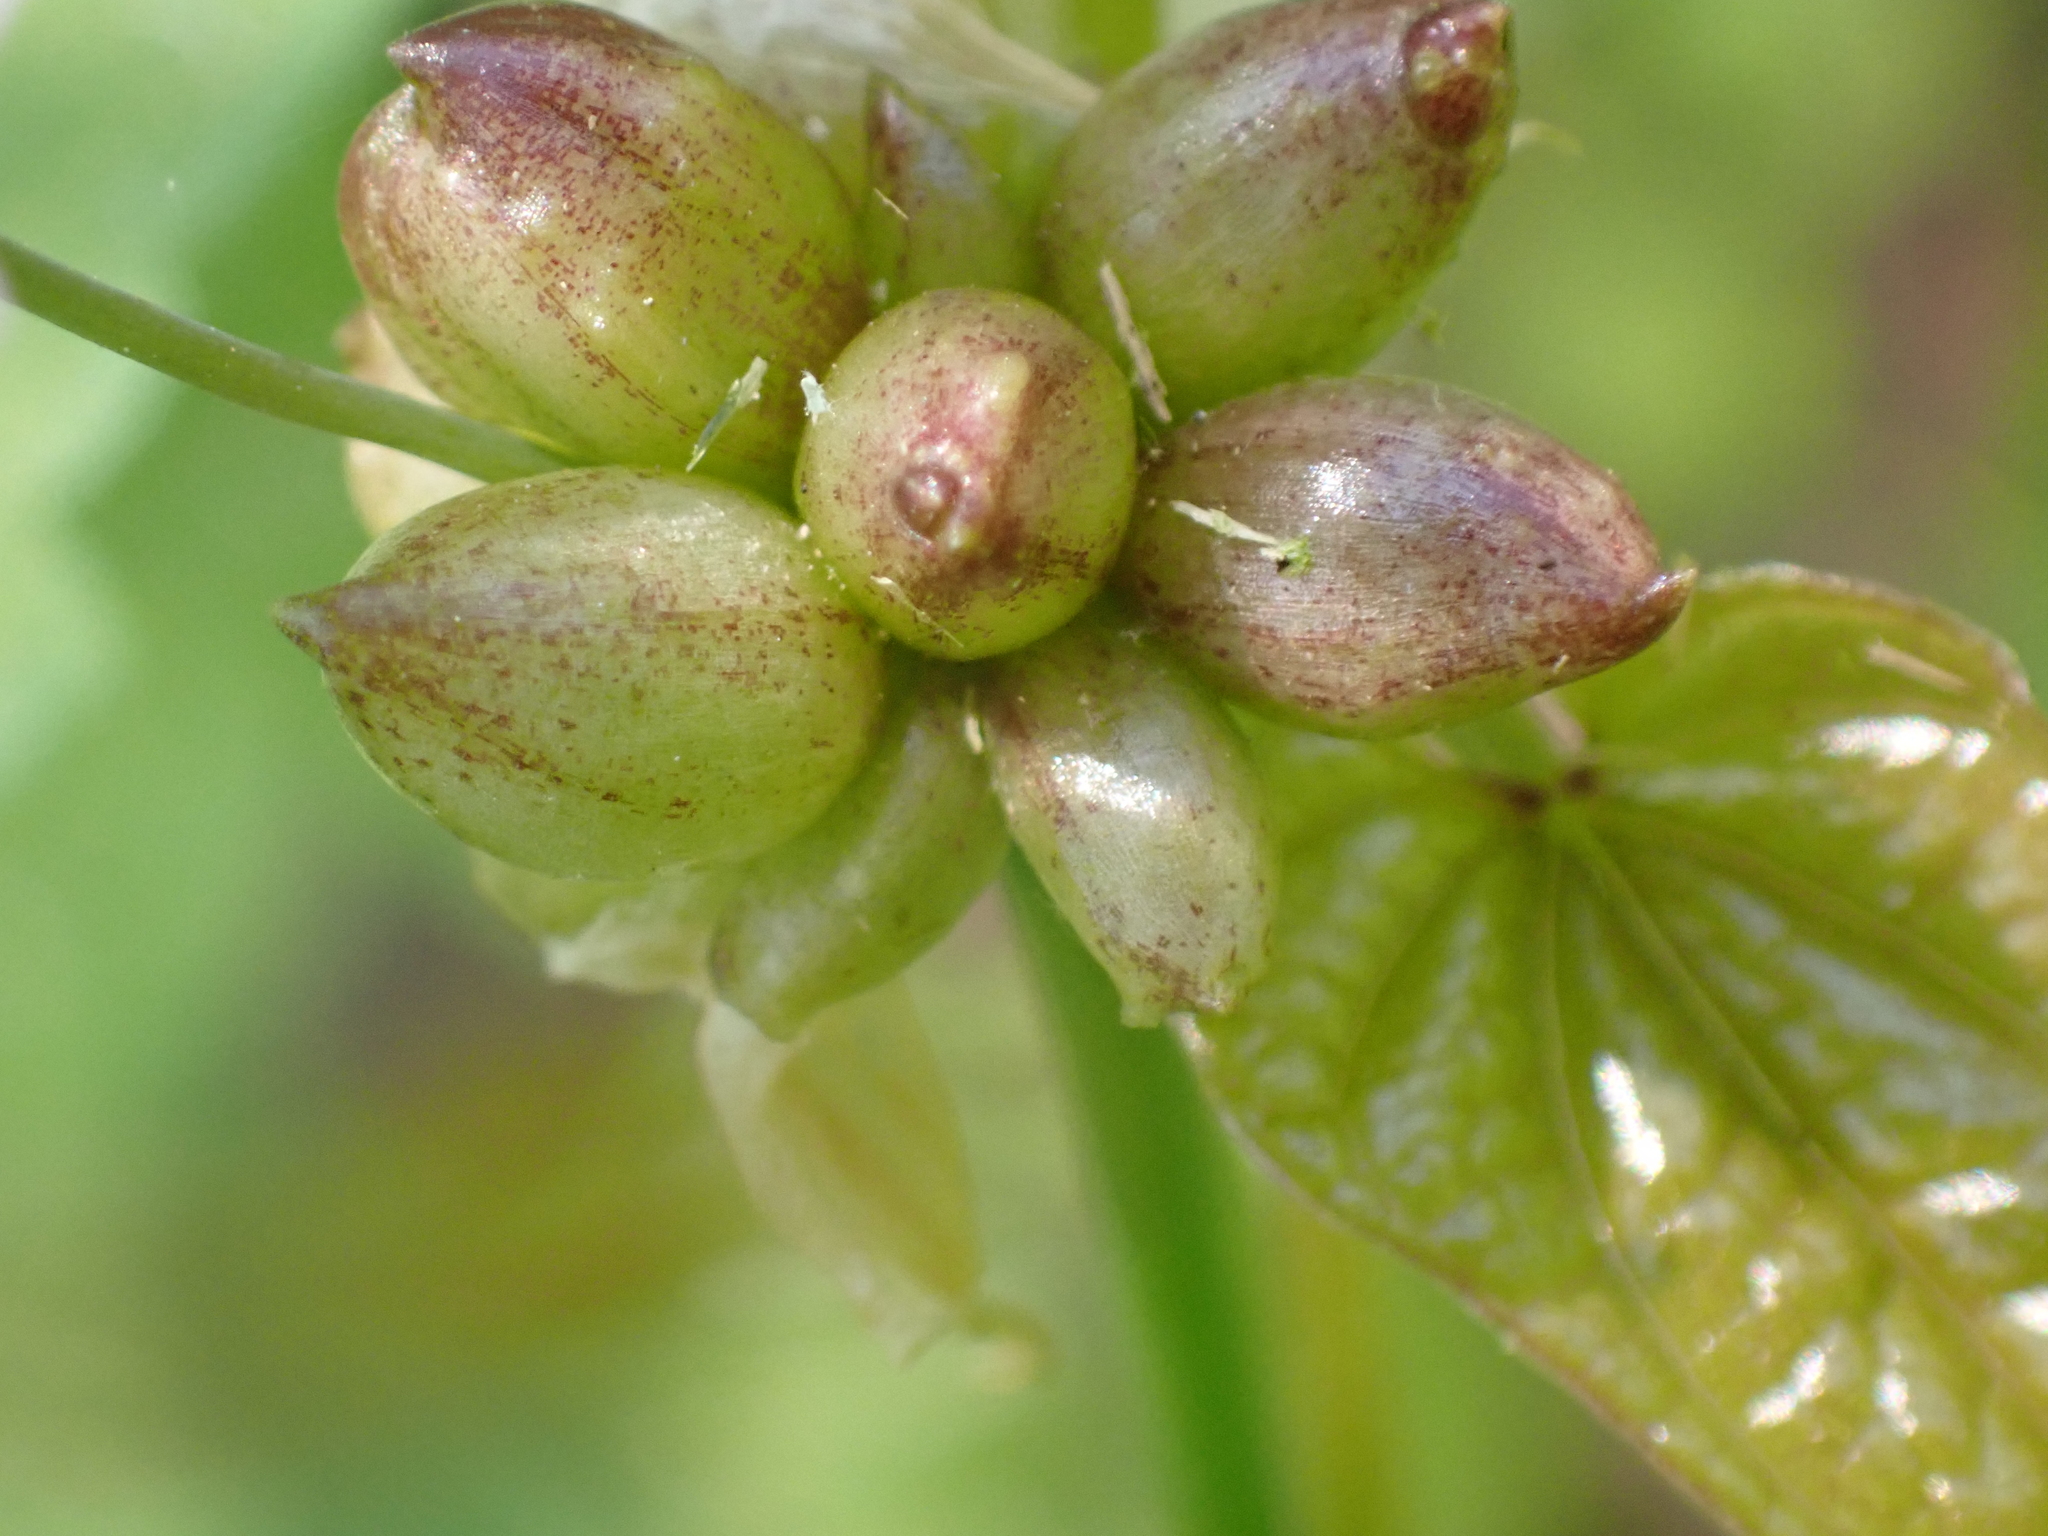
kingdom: Plantae
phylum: Tracheophyta
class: Liliopsida
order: Asparagales
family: Amaryllidaceae
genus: Allium
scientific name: Allium canadense
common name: Meadow garlic
